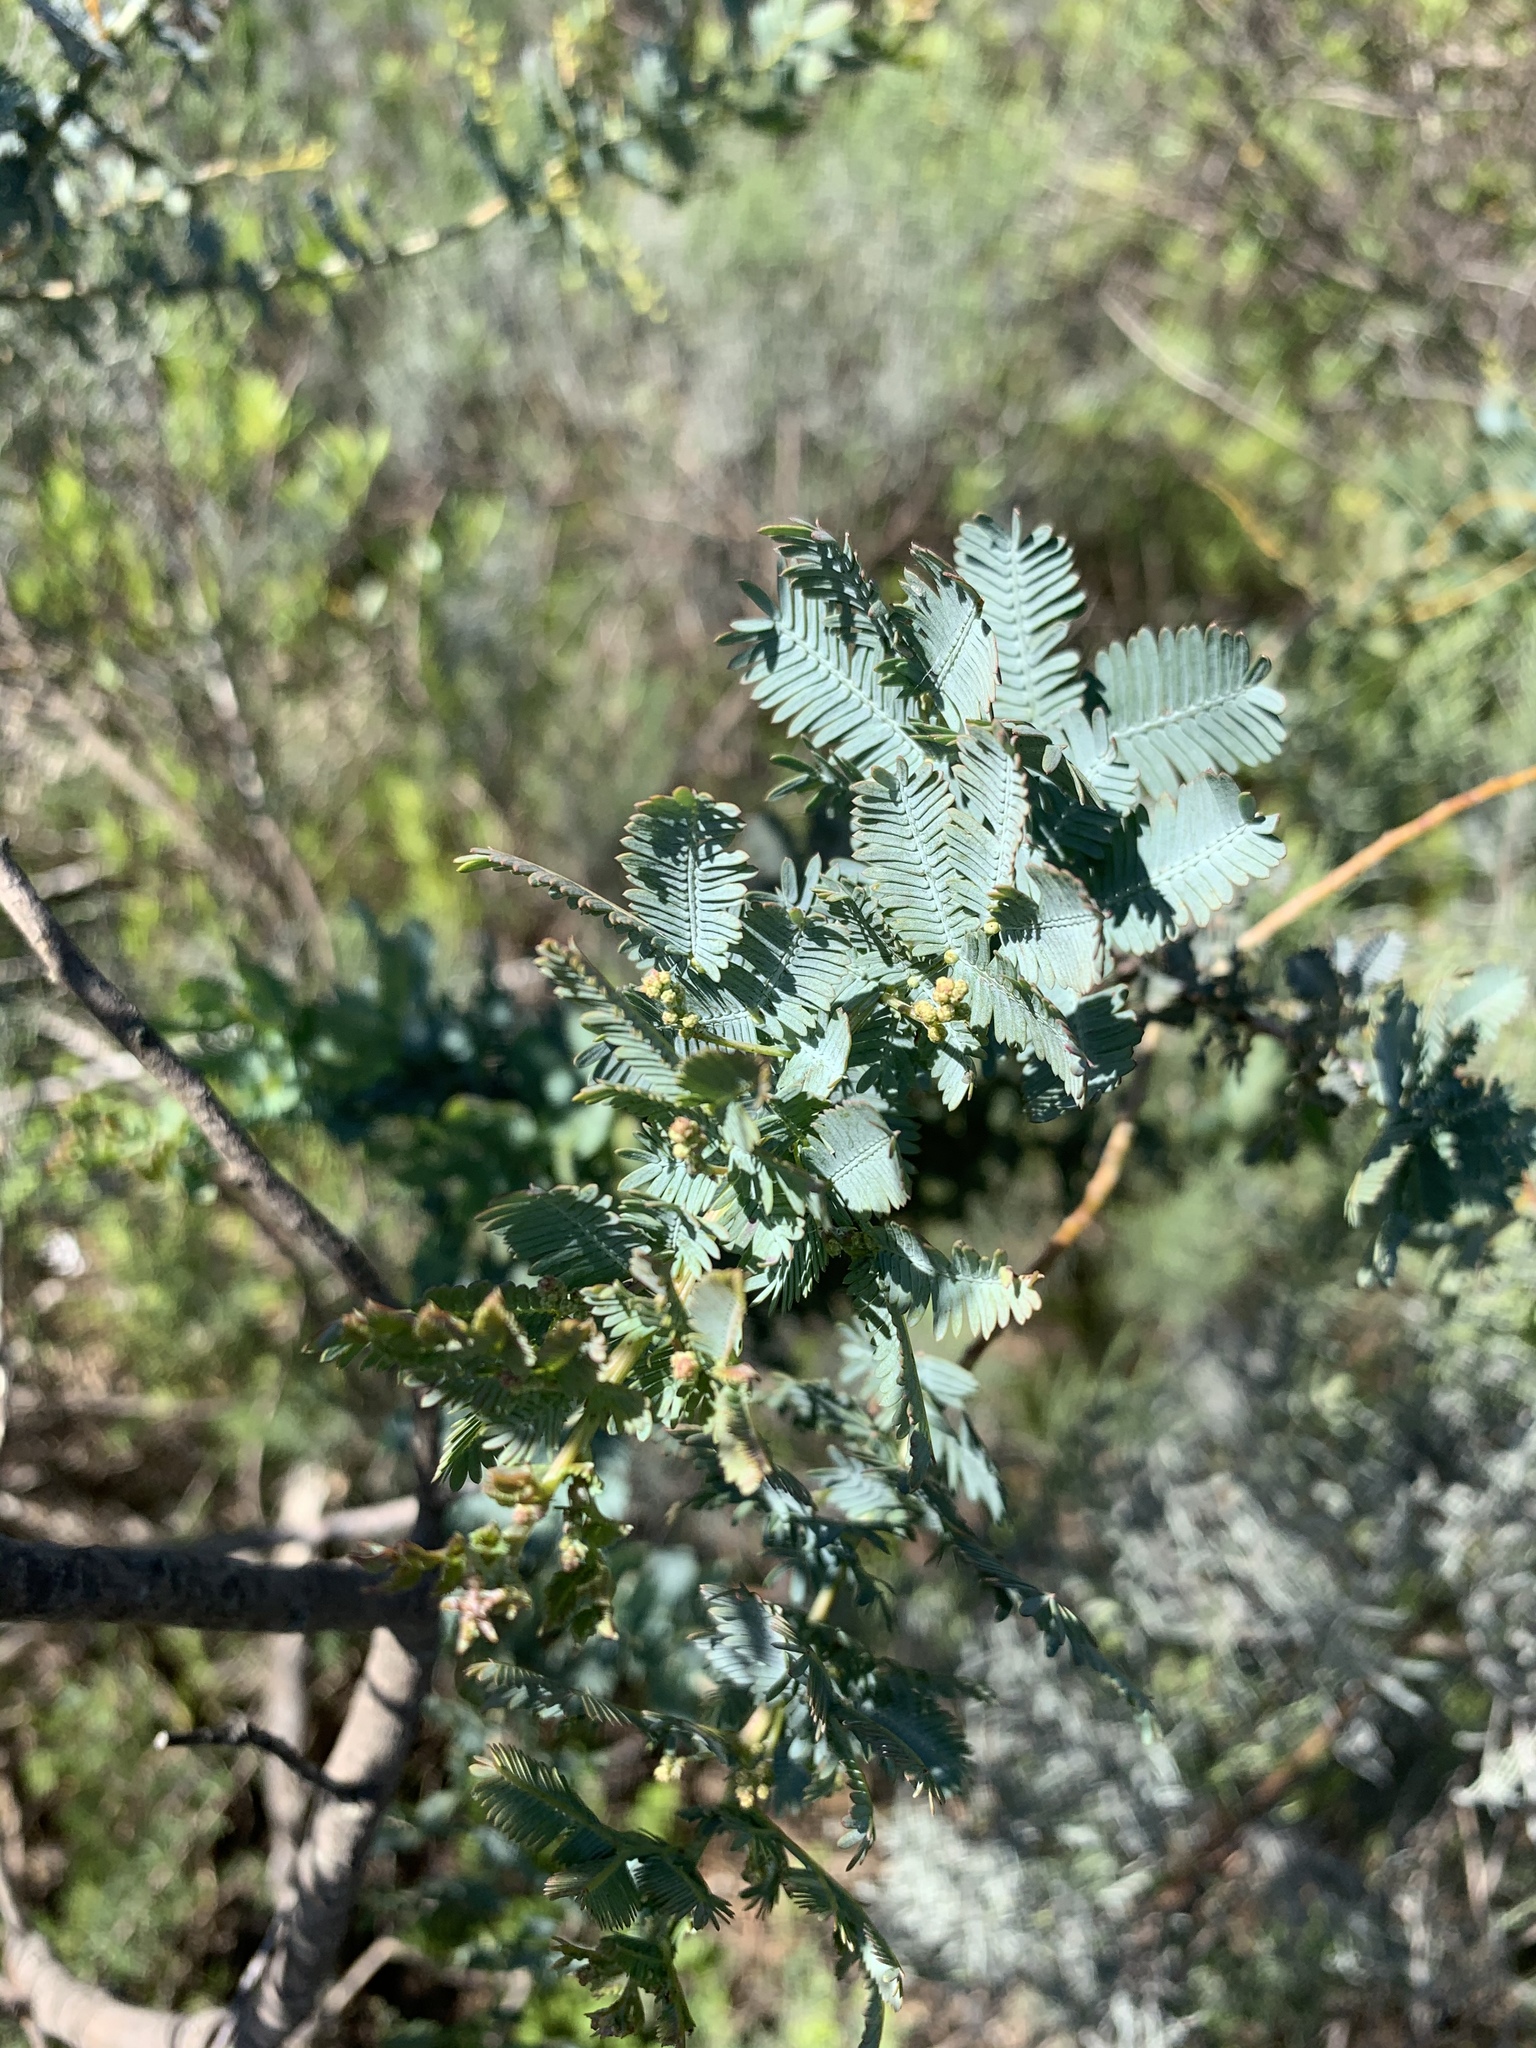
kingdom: Plantae
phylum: Tracheophyta
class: Magnoliopsida
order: Fabales
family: Fabaceae
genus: Acacia
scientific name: Acacia baileyana
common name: Cootamundra wattle
